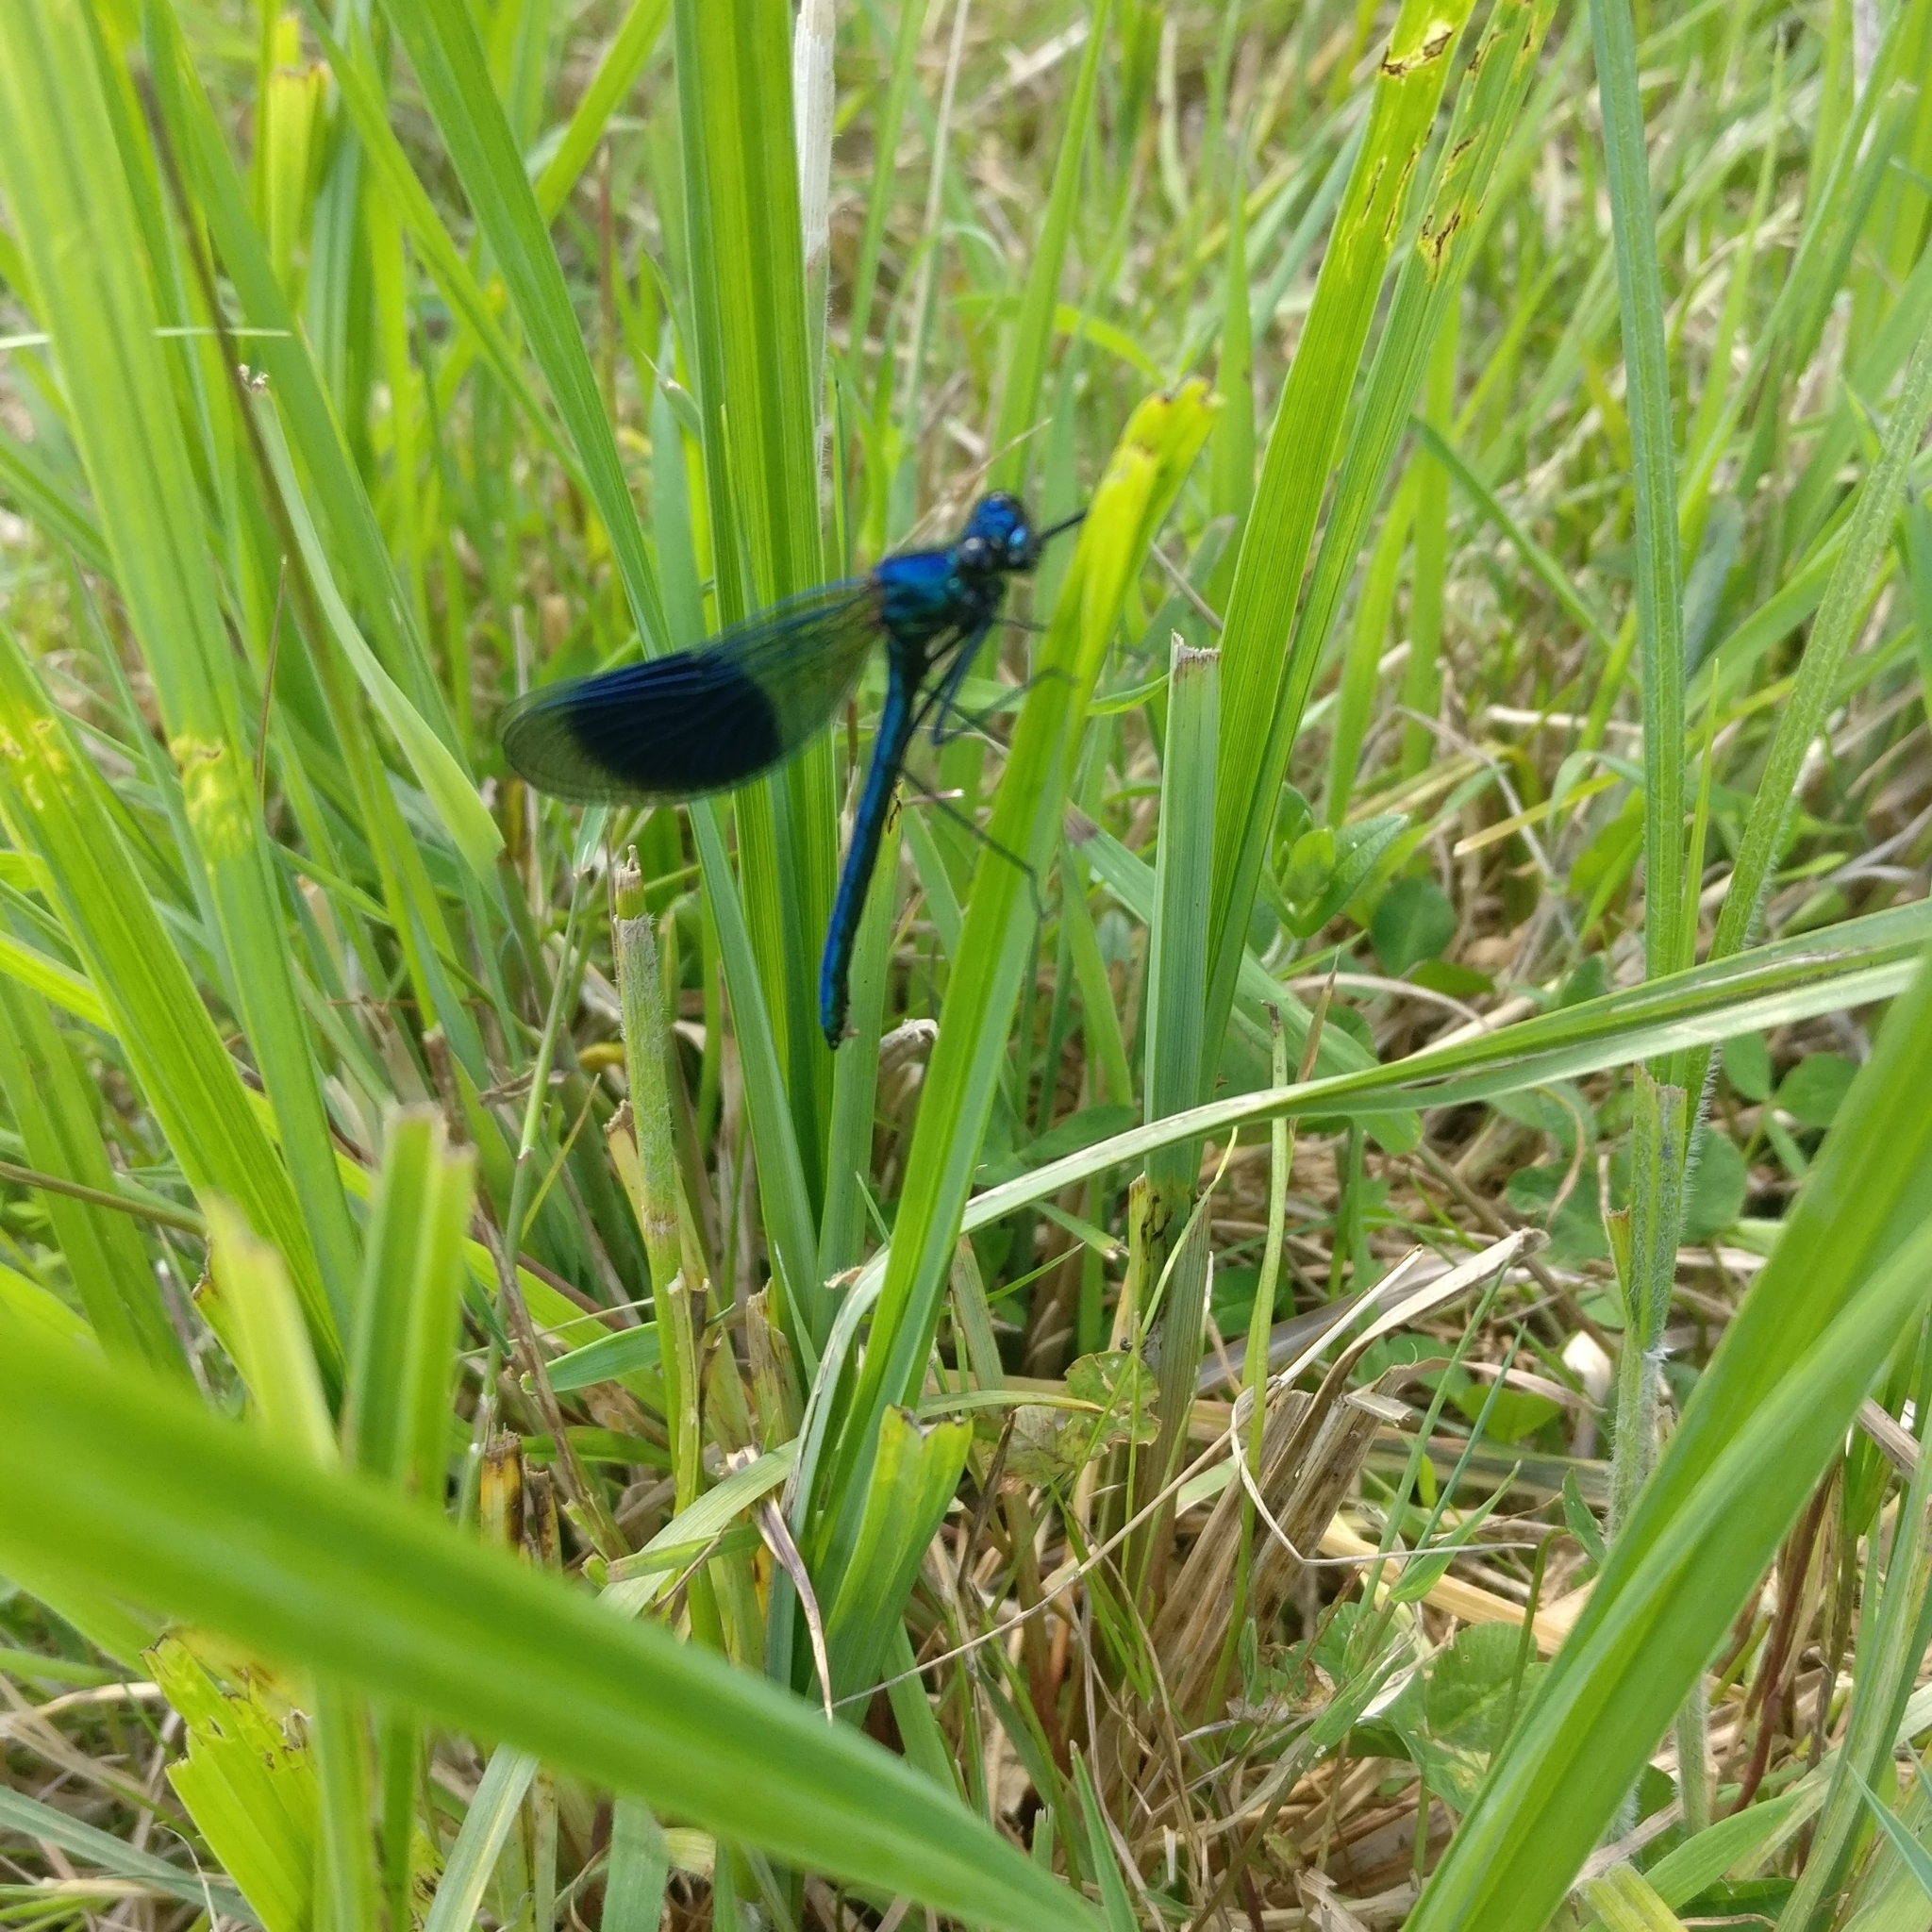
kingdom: Animalia
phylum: Arthropoda
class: Insecta
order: Odonata
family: Calopterygidae
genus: Calopteryx
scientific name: Calopteryx splendens
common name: Banded demoiselle
